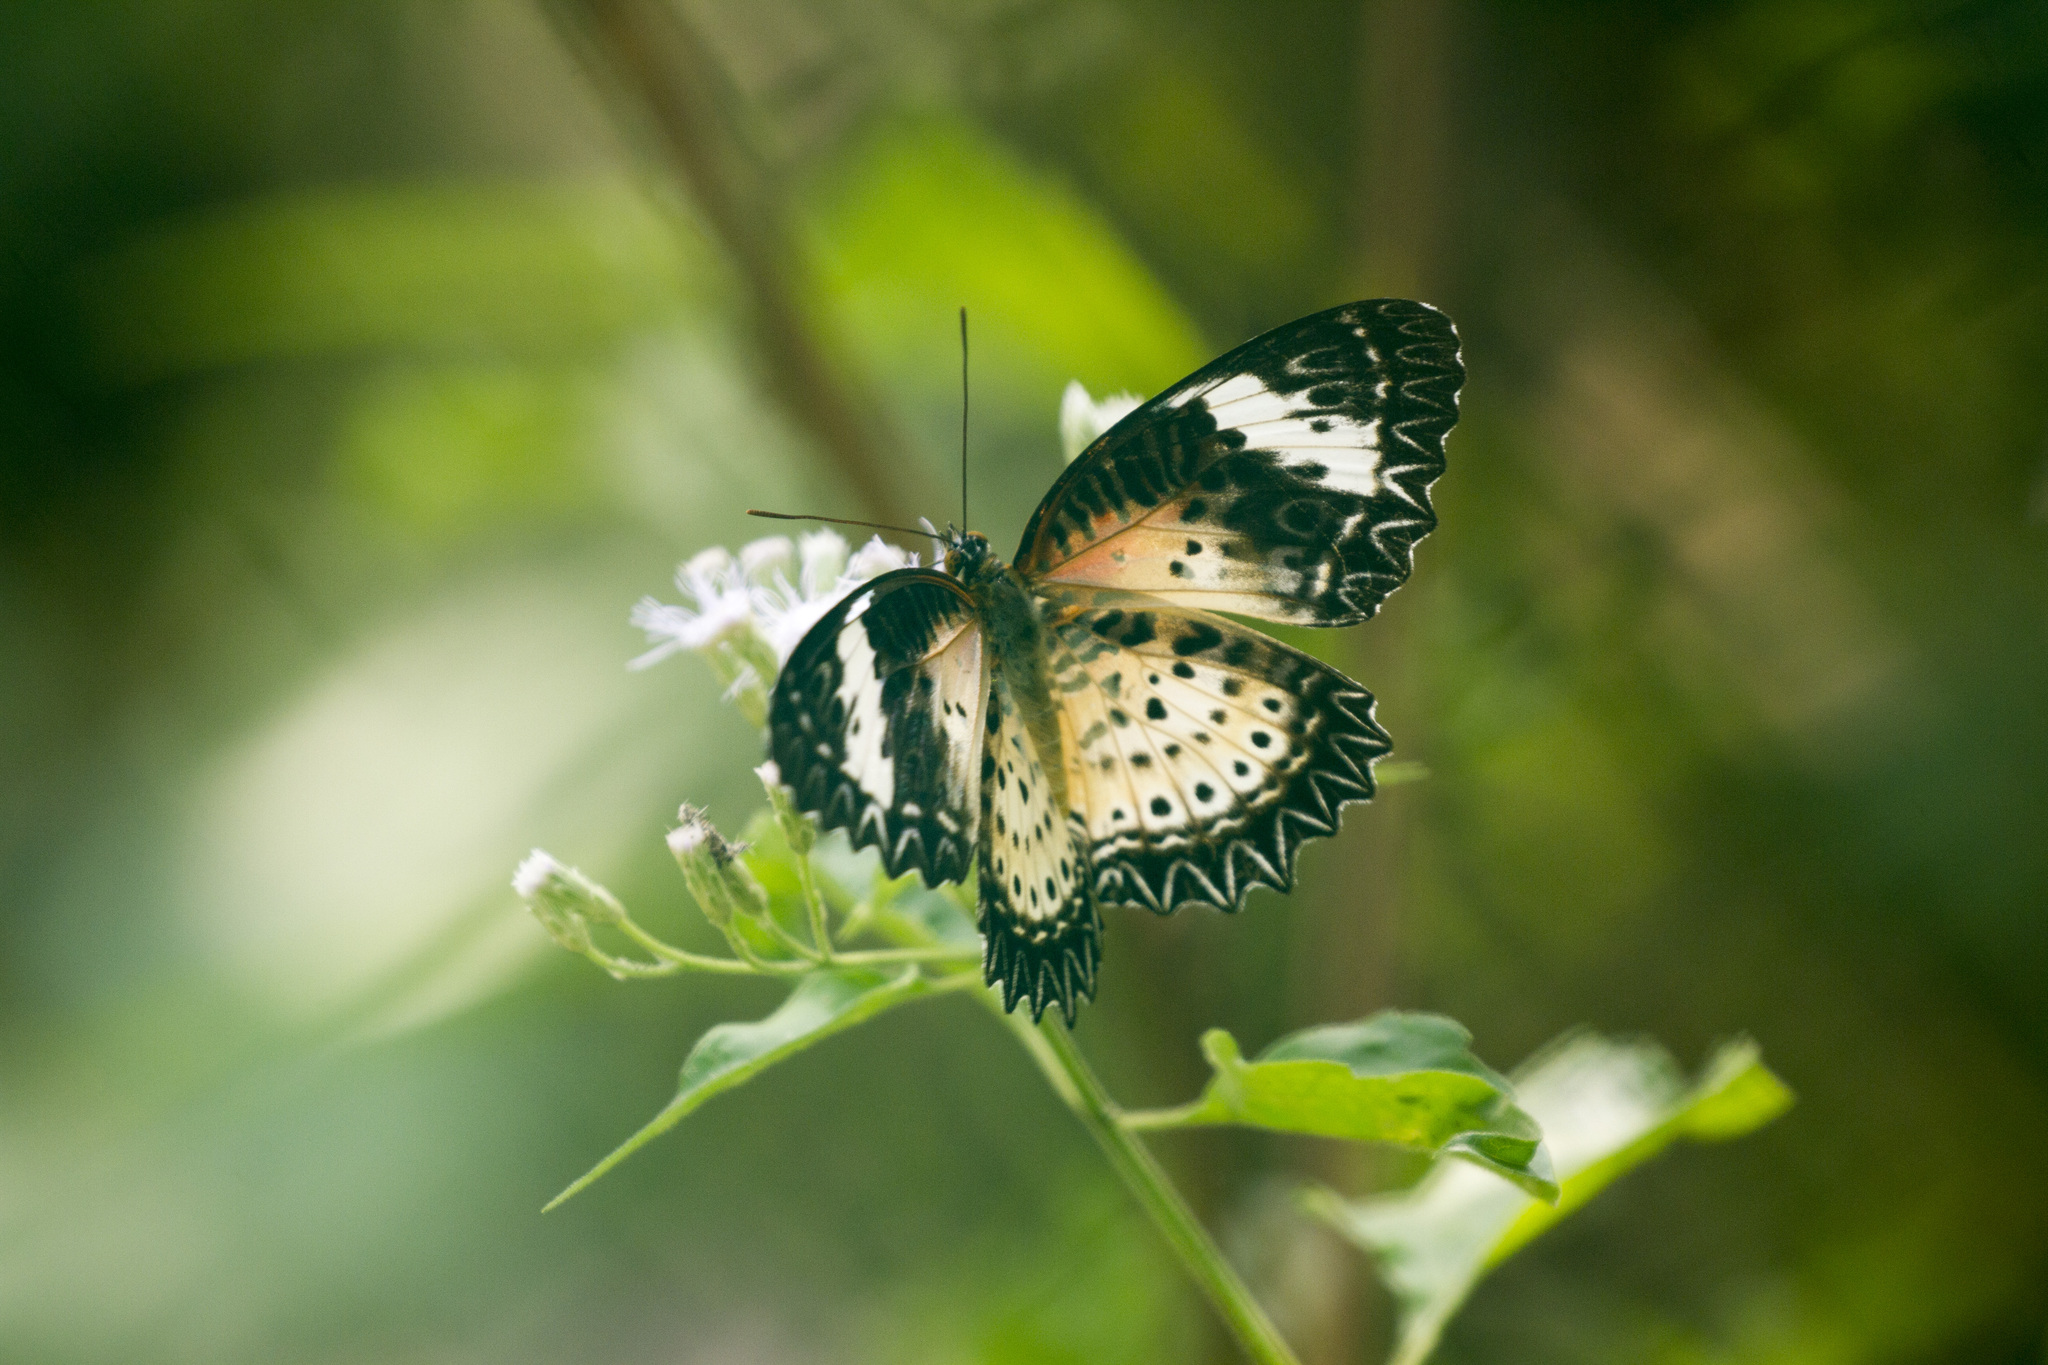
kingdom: Animalia
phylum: Arthropoda
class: Insecta
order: Lepidoptera
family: Nymphalidae
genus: Cethosia
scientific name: Cethosia cyane
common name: Leopard lacewing butterfly
